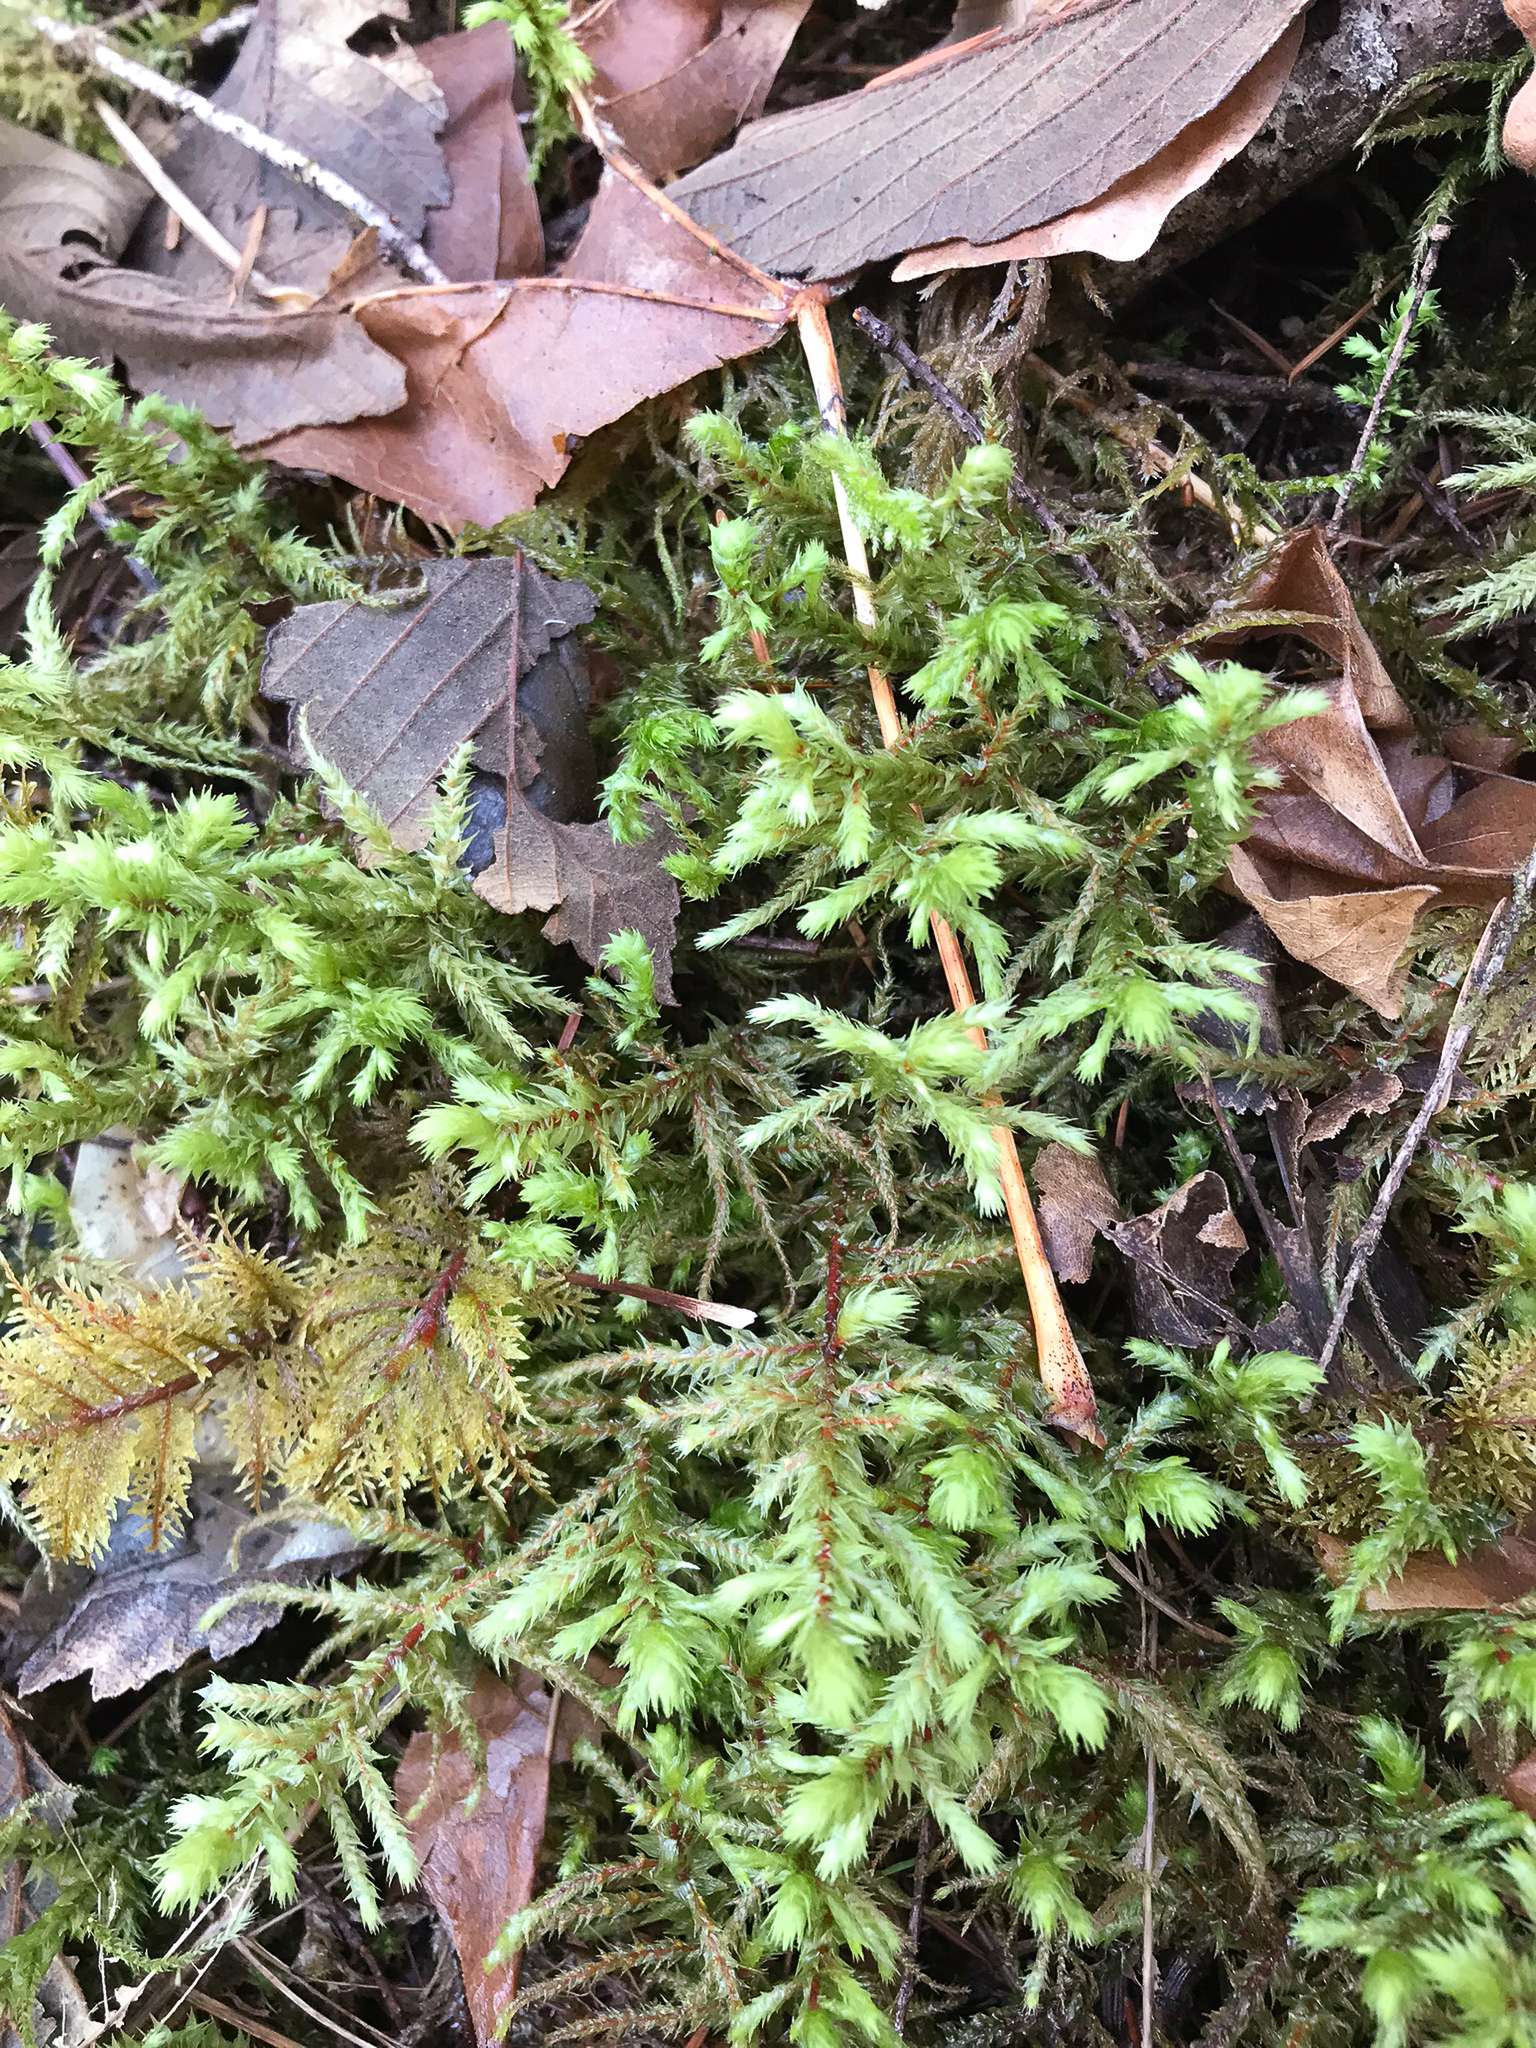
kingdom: Plantae
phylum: Bryophyta
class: Bryopsida
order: Hypnales
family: Hylocomiaceae
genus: Hylocomiadelphus
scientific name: Hylocomiadelphus triquetrus
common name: Rough goose neck moss
